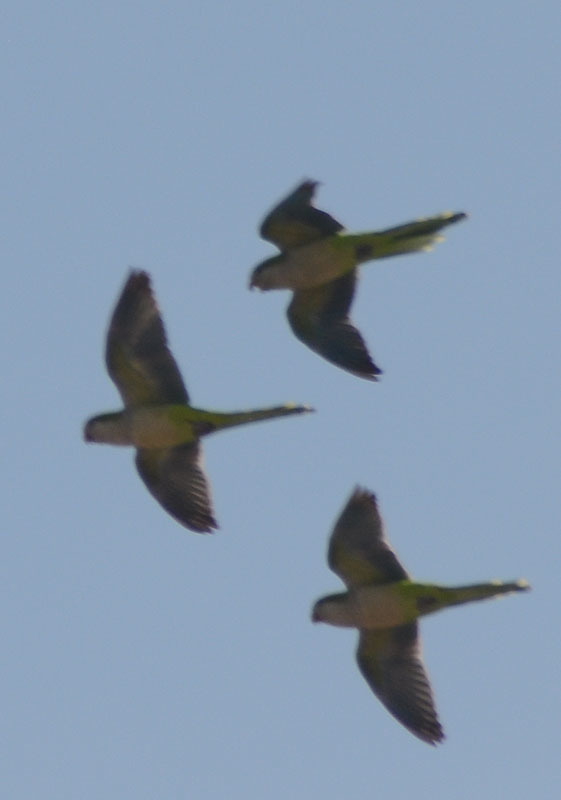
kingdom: Animalia
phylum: Chordata
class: Aves
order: Psittaciformes
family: Psittacidae
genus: Myiopsitta
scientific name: Myiopsitta monachus
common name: Monk parakeet
